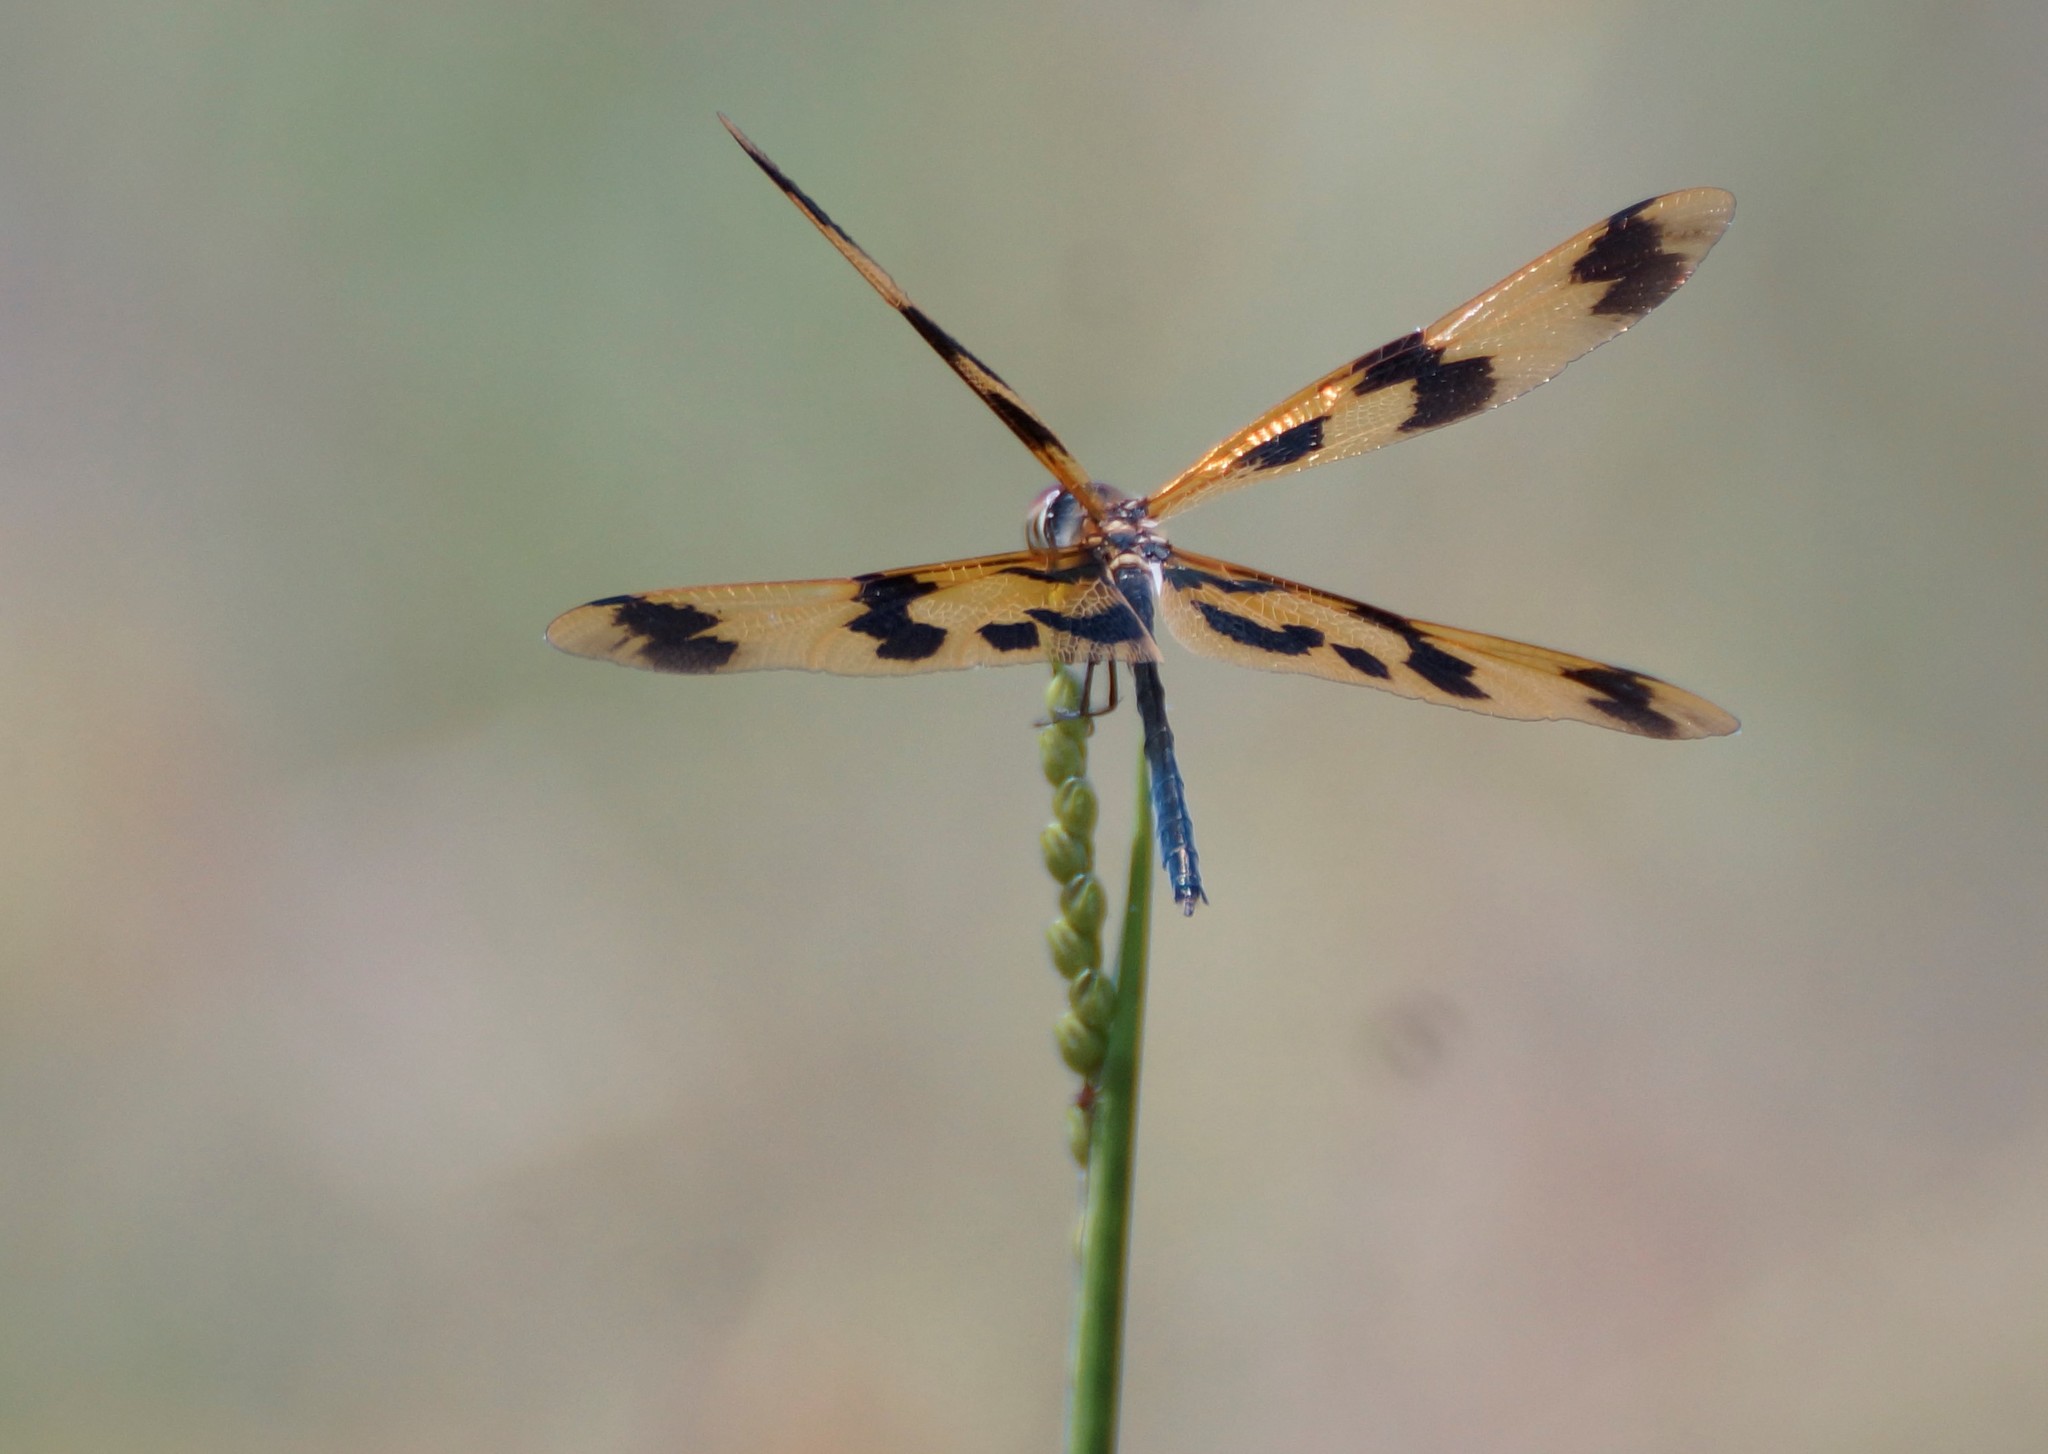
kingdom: Animalia
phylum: Arthropoda
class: Insecta
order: Odonata
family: Libellulidae
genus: Rhyothemis
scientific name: Rhyothemis graphiptera
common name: Graphic flutterer
